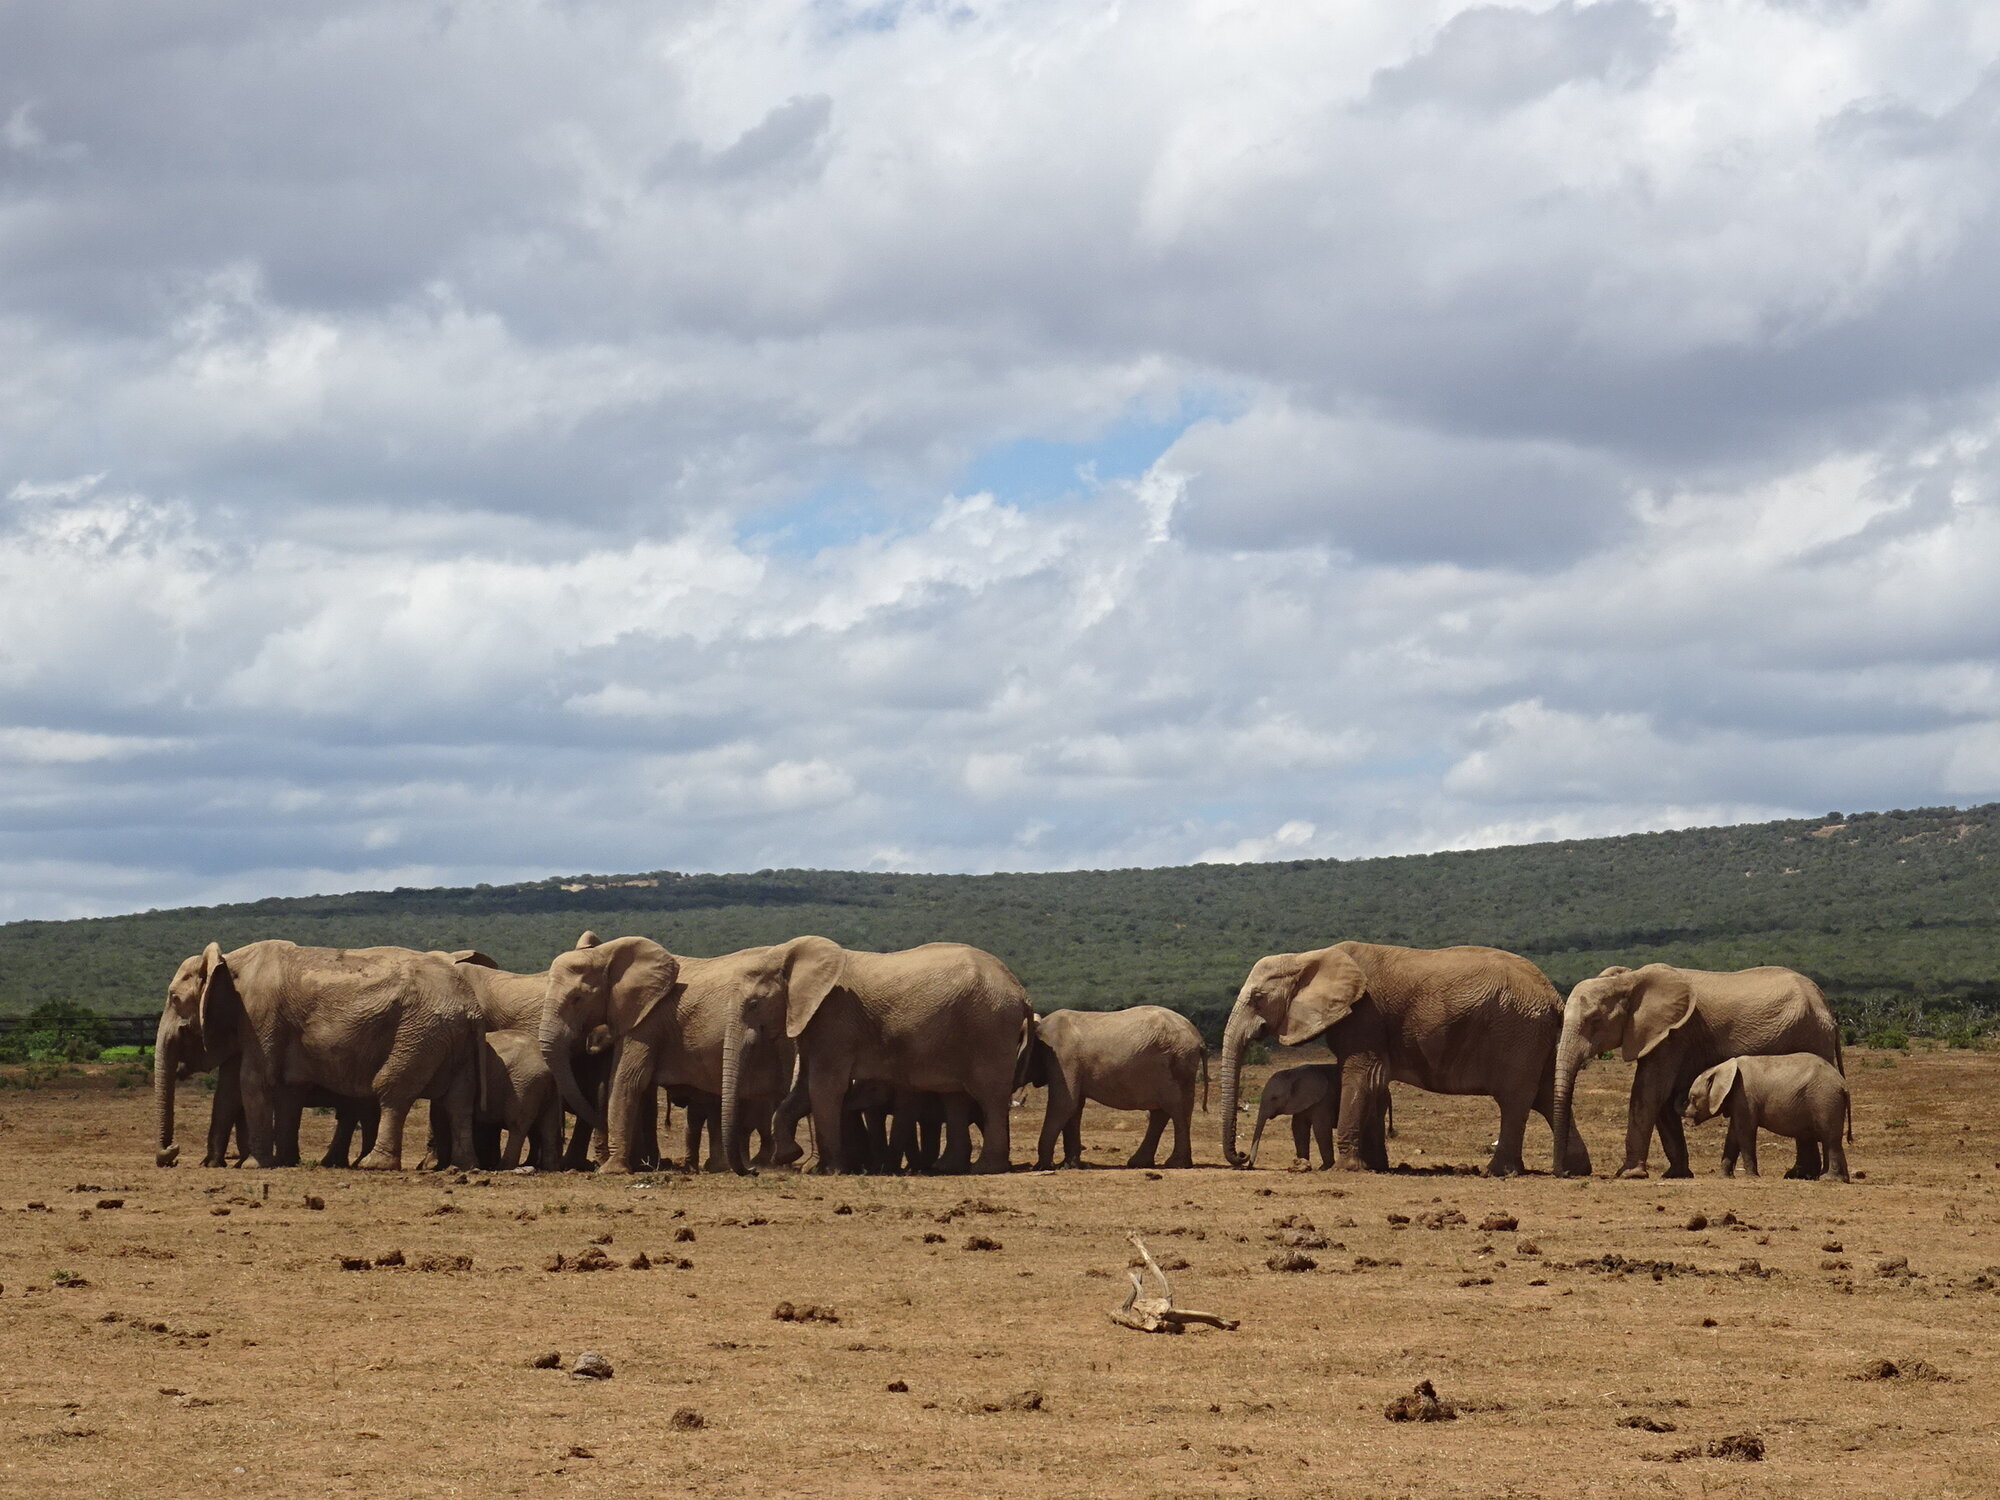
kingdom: Animalia
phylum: Chordata
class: Mammalia
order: Proboscidea
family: Elephantidae
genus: Loxodonta
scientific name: Loxodonta africana
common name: African elephant
